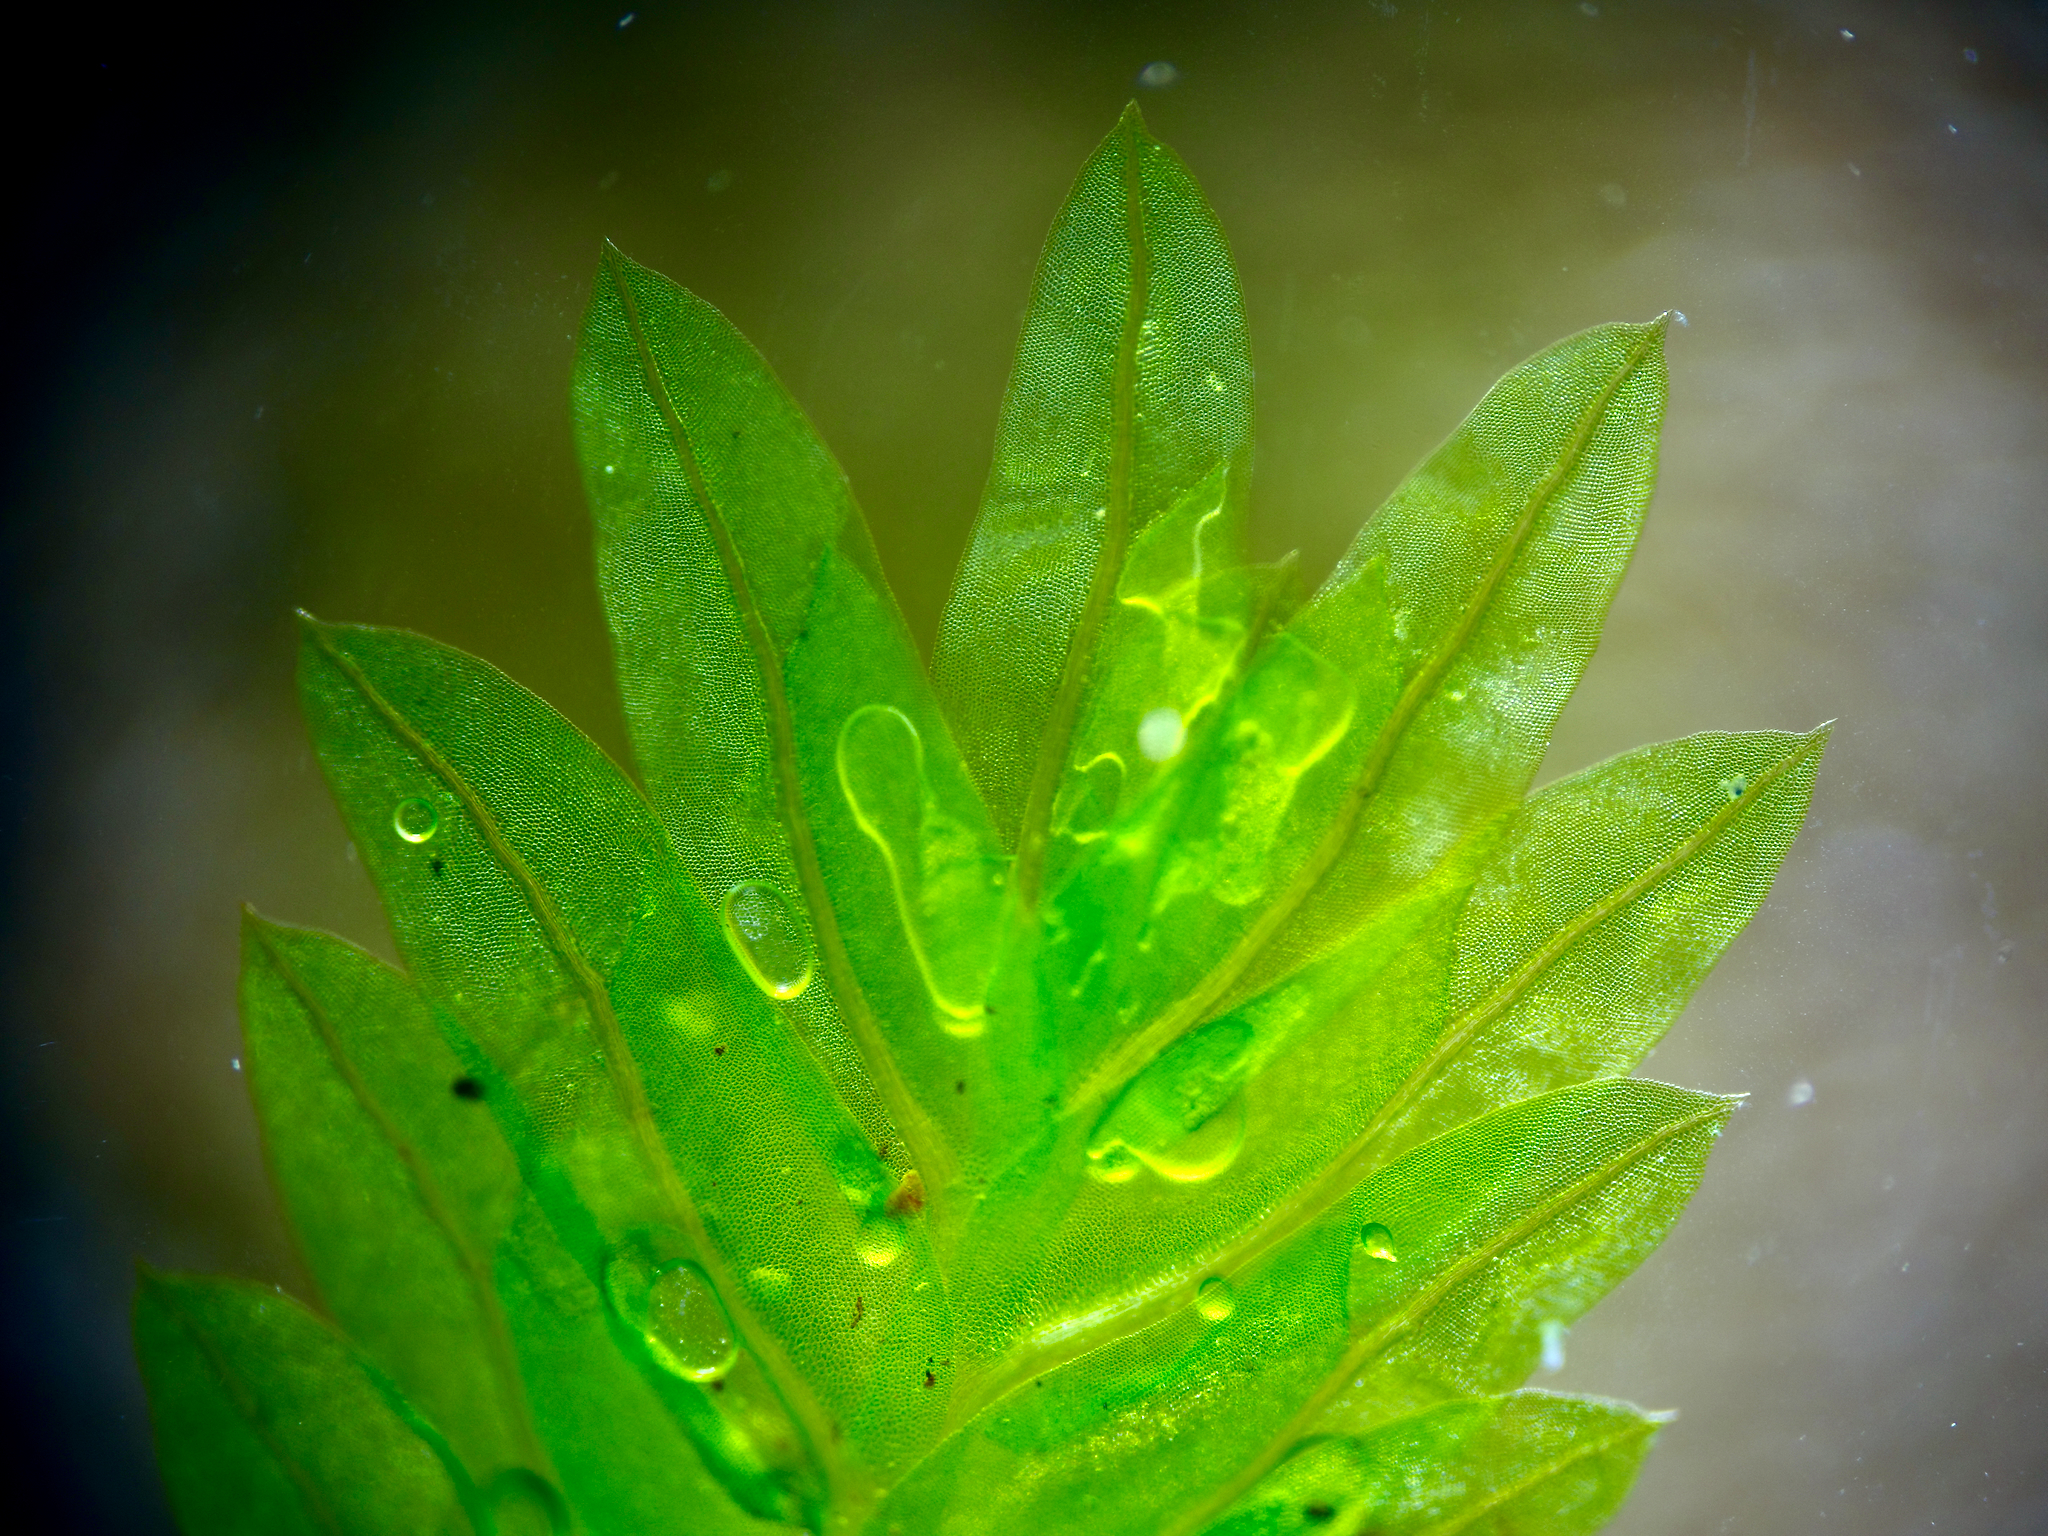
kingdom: Plantae
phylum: Bryophyta
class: Bryopsida
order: Dicranales
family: Fissidentaceae
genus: Fissidens
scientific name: Fissidens taxifolius
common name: Yew-leaved pocket moss
